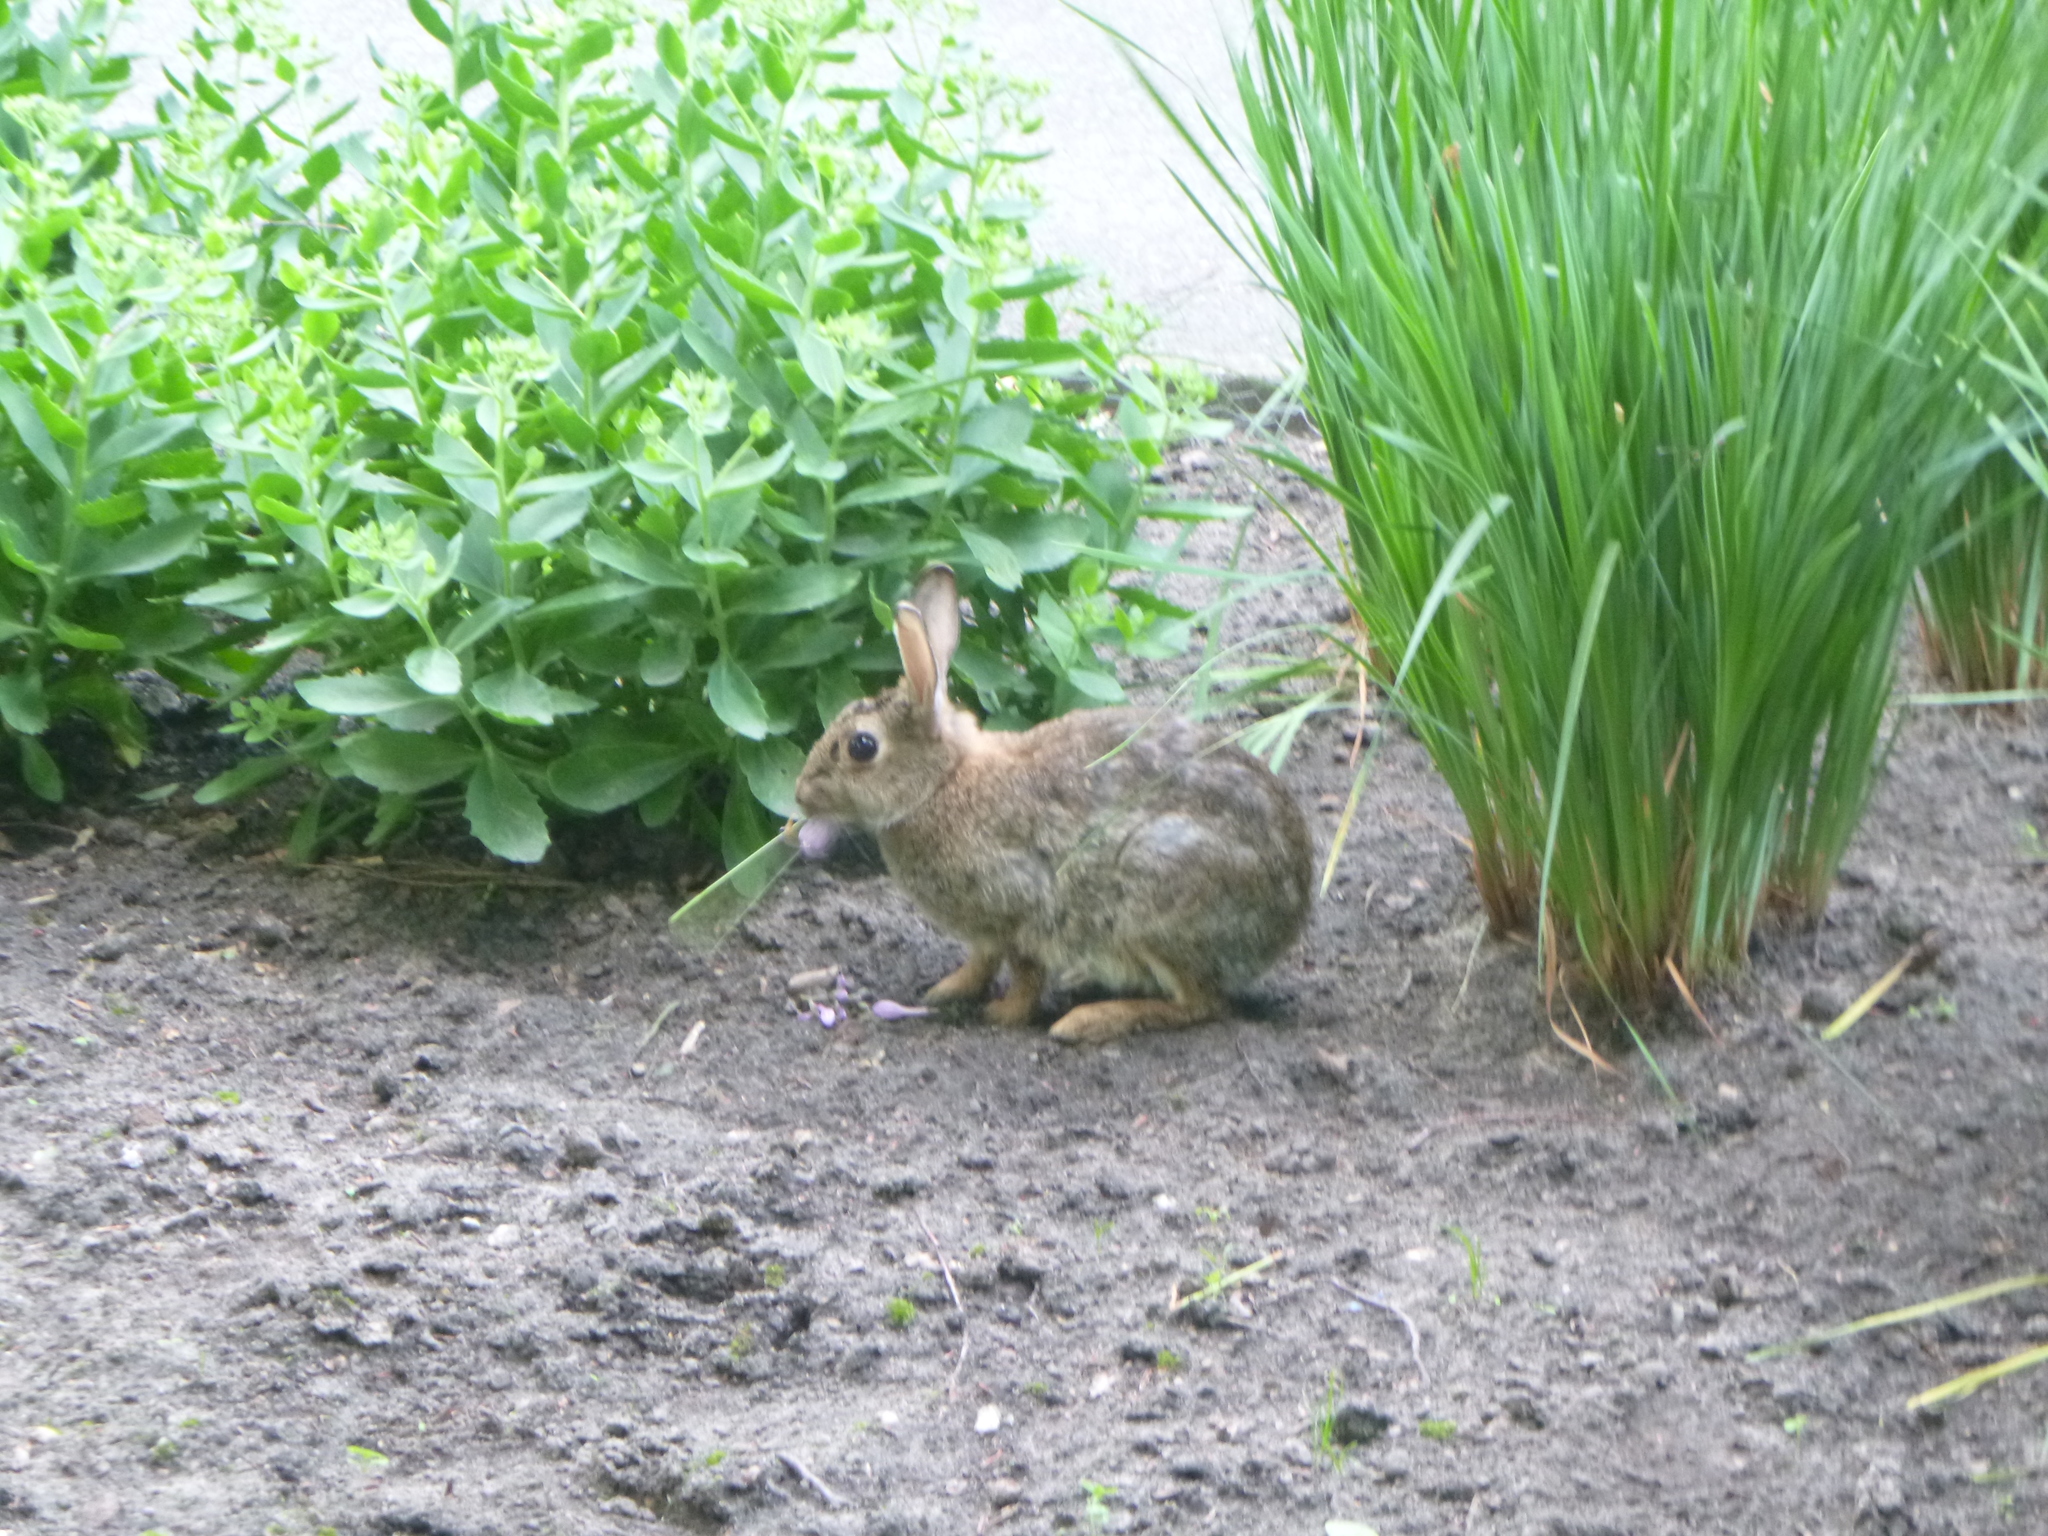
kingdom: Animalia
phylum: Chordata
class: Mammalia
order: Lagomorpha
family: Leporidae
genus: Oryctolagus
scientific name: Oryctolagus cuniculus
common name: European rabbit
